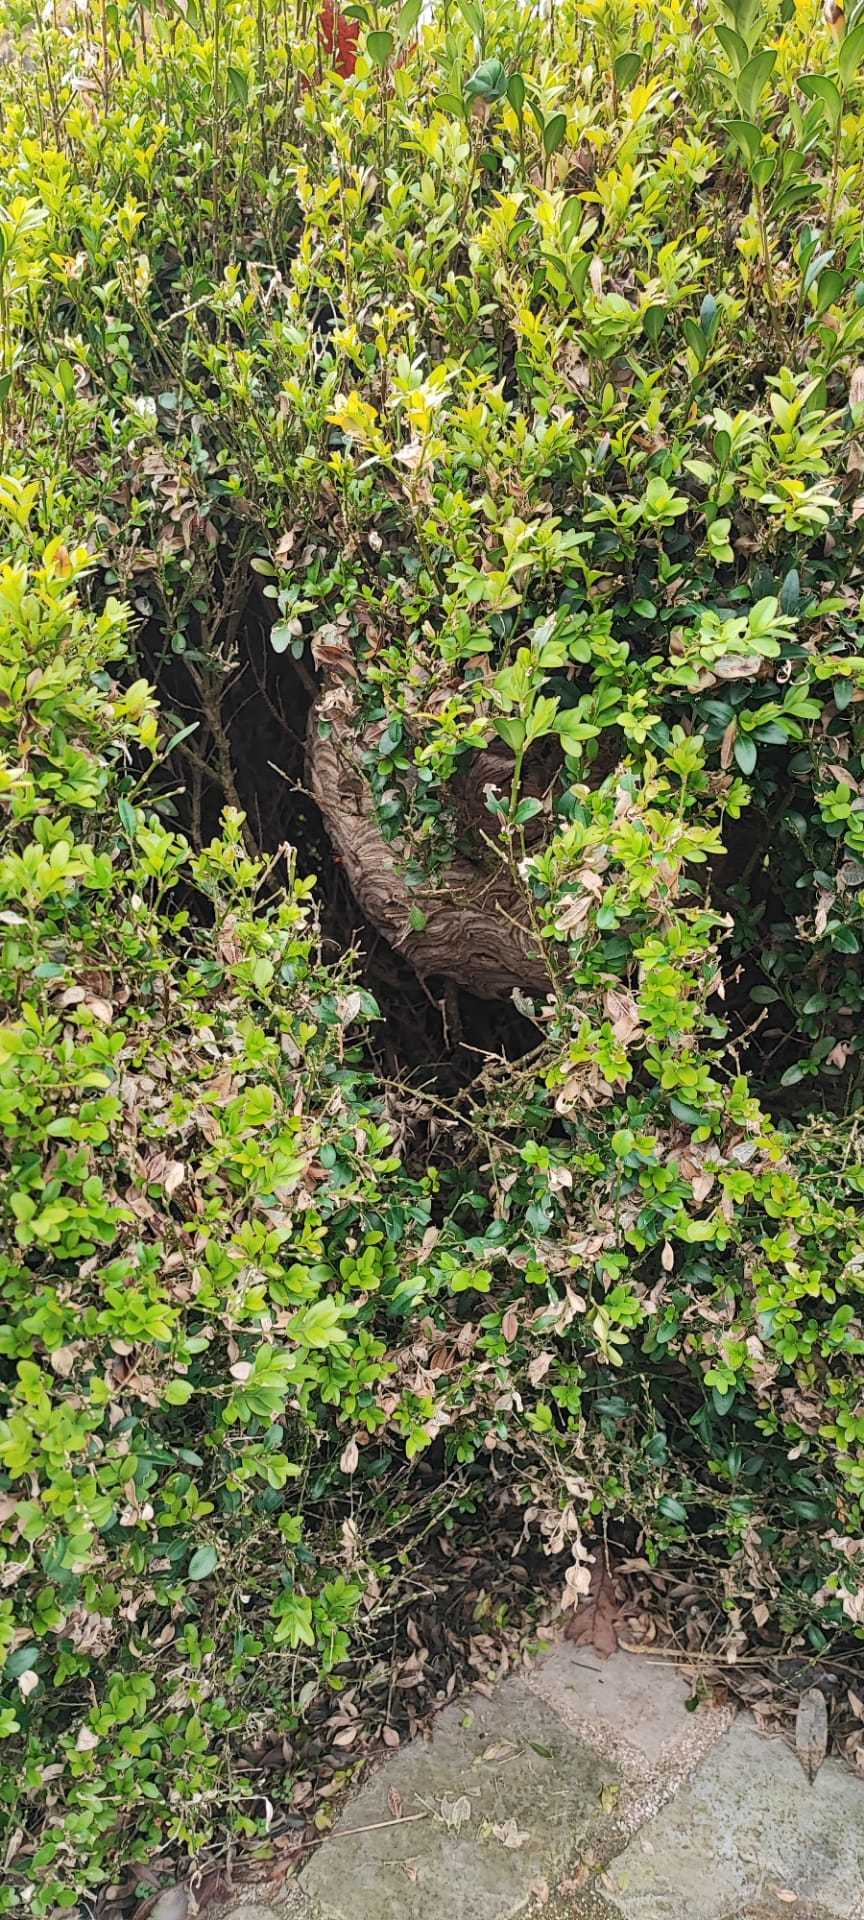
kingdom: Animalia
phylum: Arthropoda
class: Insecta
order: Hymenoptera
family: Vespidae
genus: Vespa
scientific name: Vespa velutina
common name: Asian hornet
